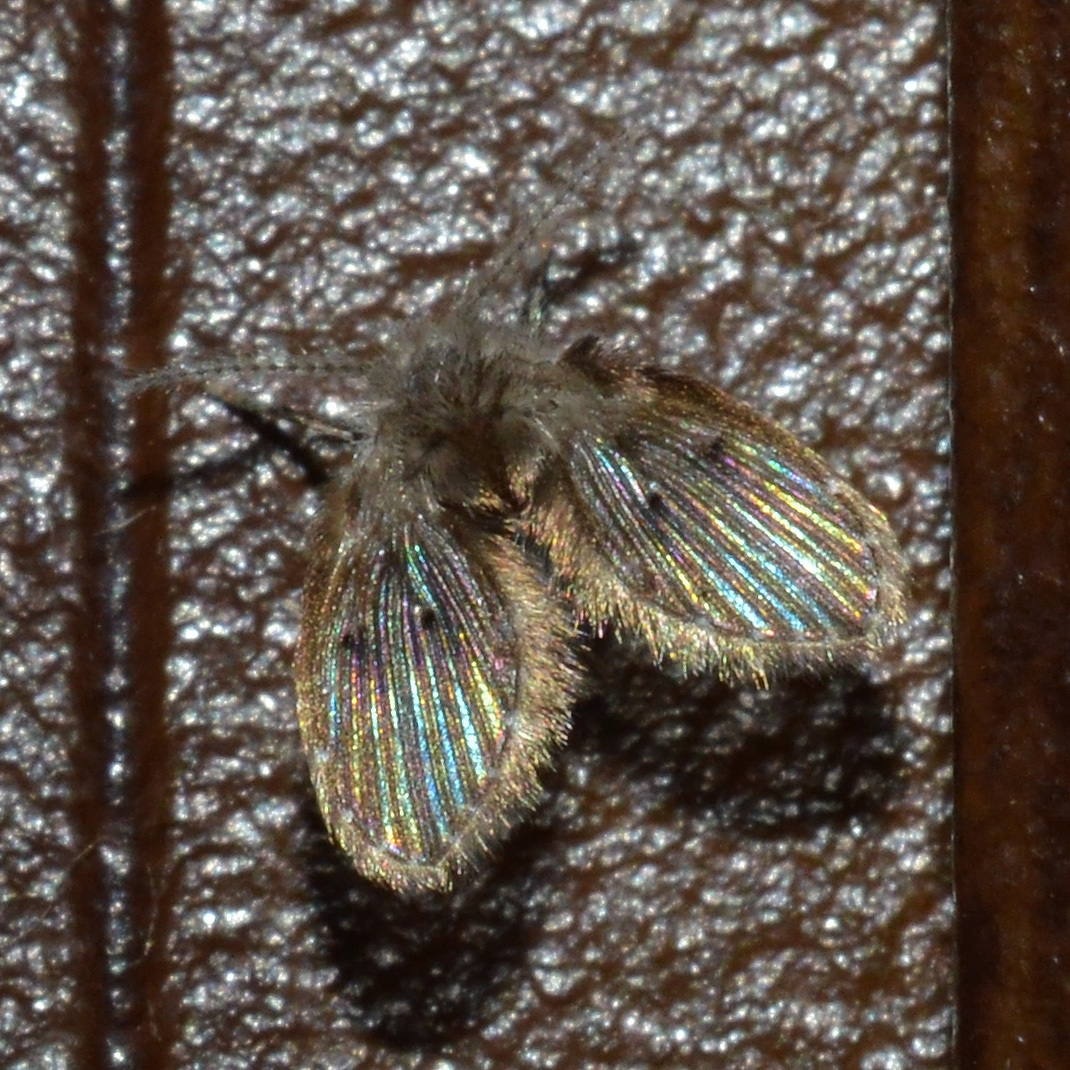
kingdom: Animalia
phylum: Arthropoda
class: Insecta
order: Diptera
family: Psychodidae
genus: Clogmia
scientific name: Clogmia albipunctatus
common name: White-spotted moth fly
